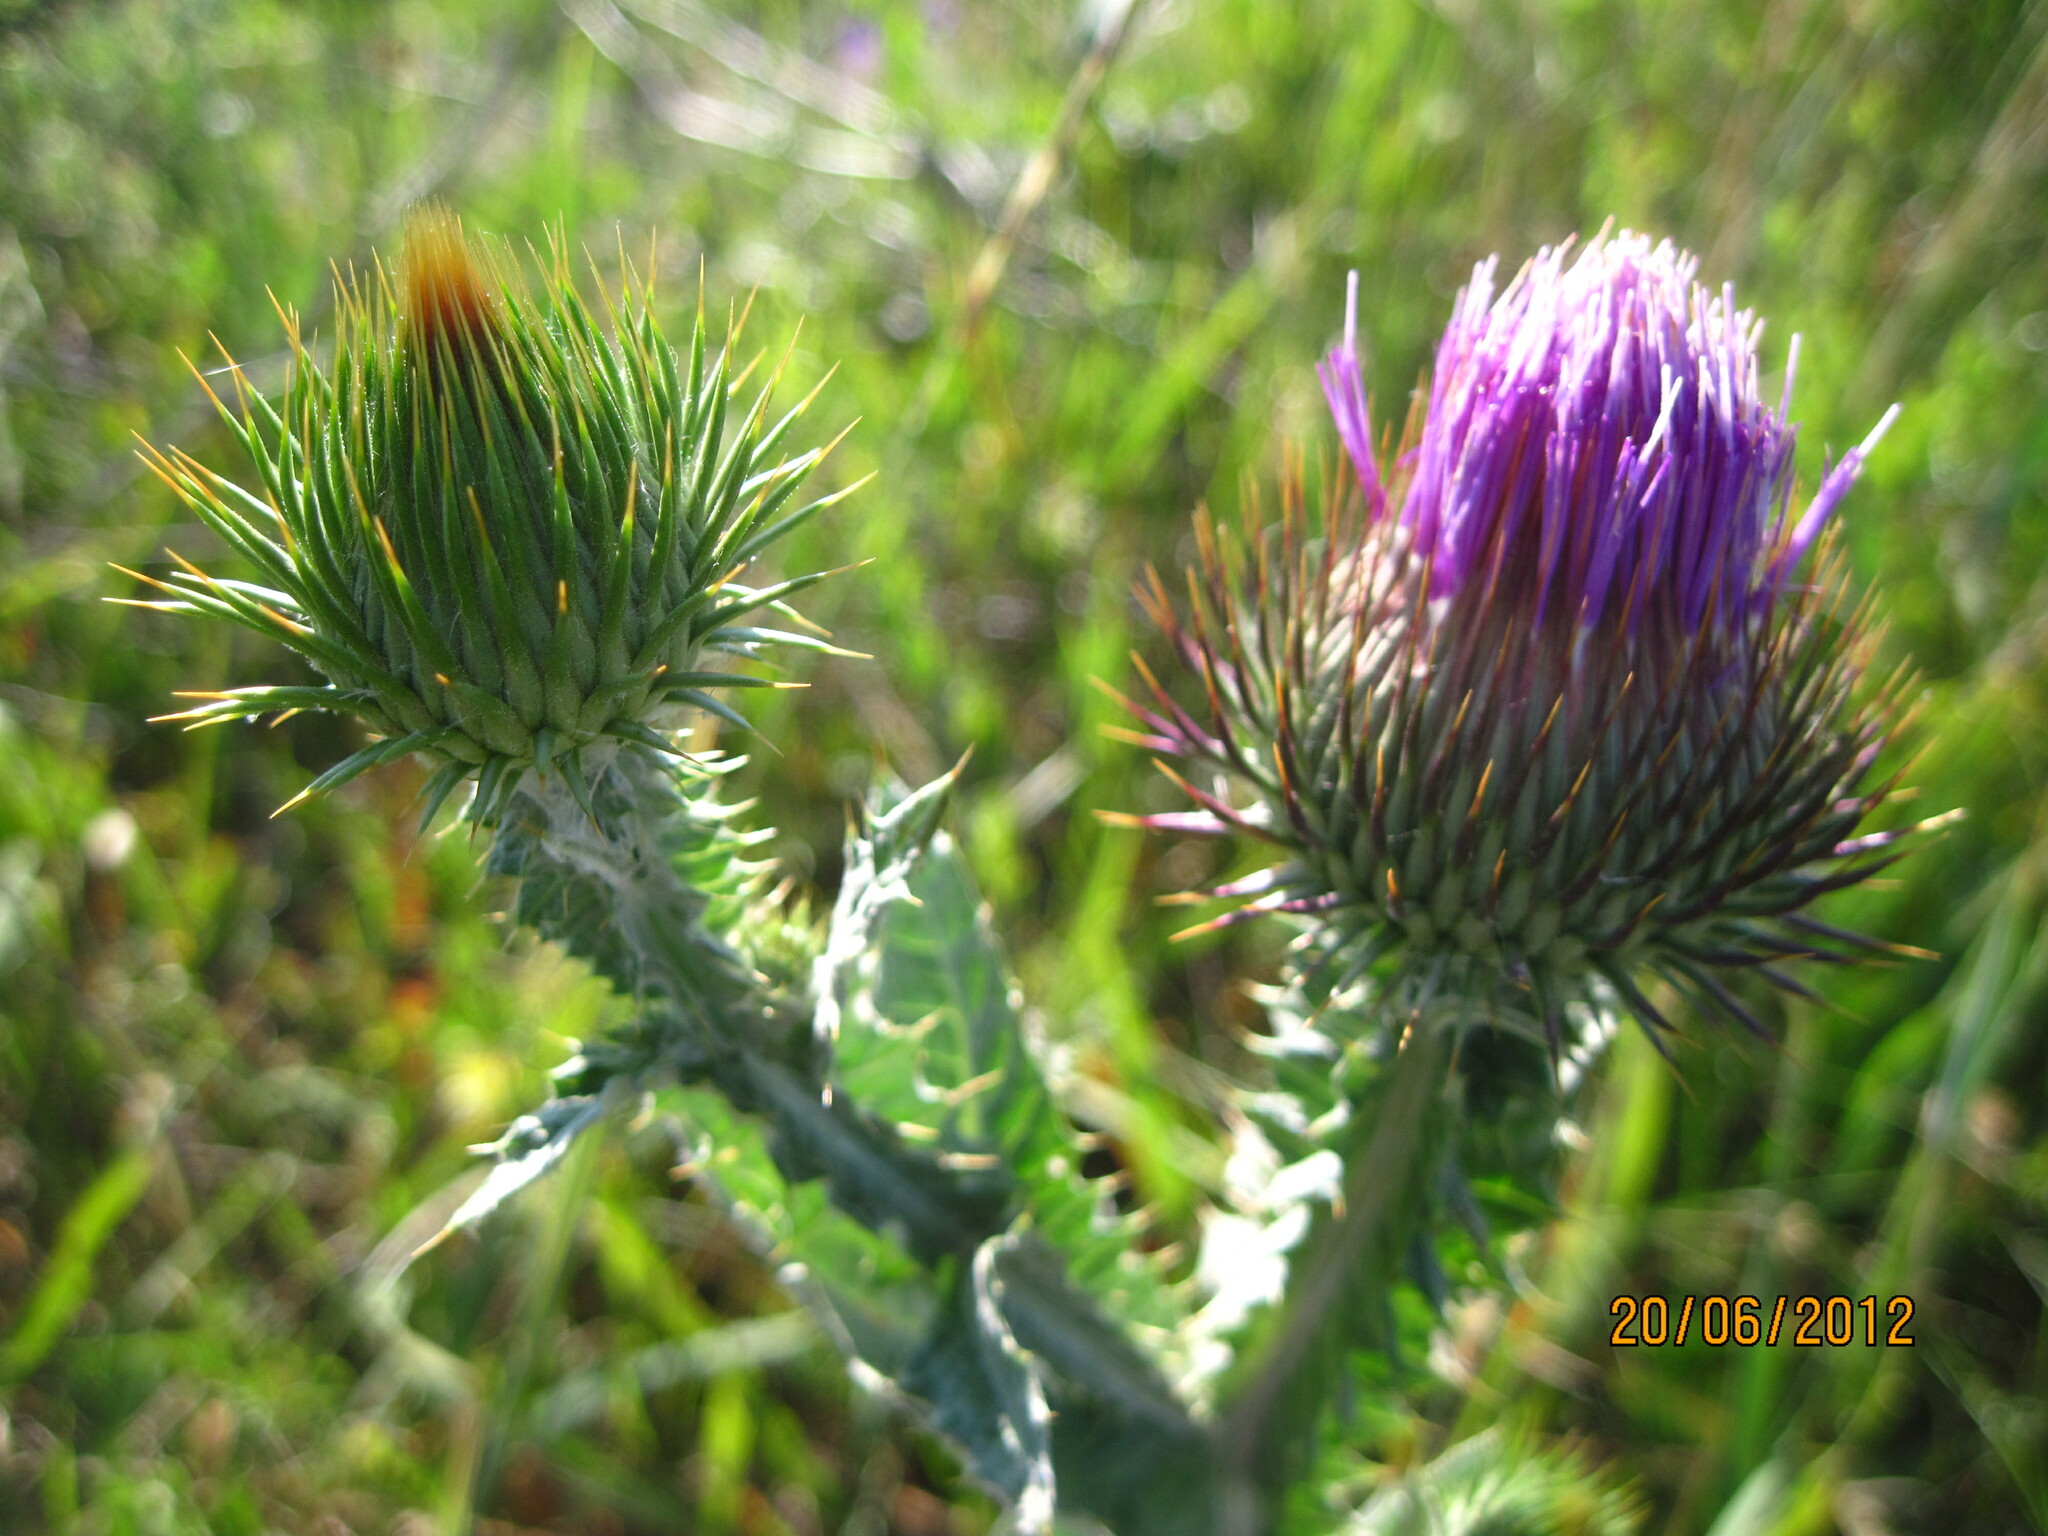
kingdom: Plantae
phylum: Tracheophyta
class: Magnoliopsida
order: Asterales
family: Asteraceae
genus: Onopordum
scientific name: Onopordum acanthium
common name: Scotch thistle
